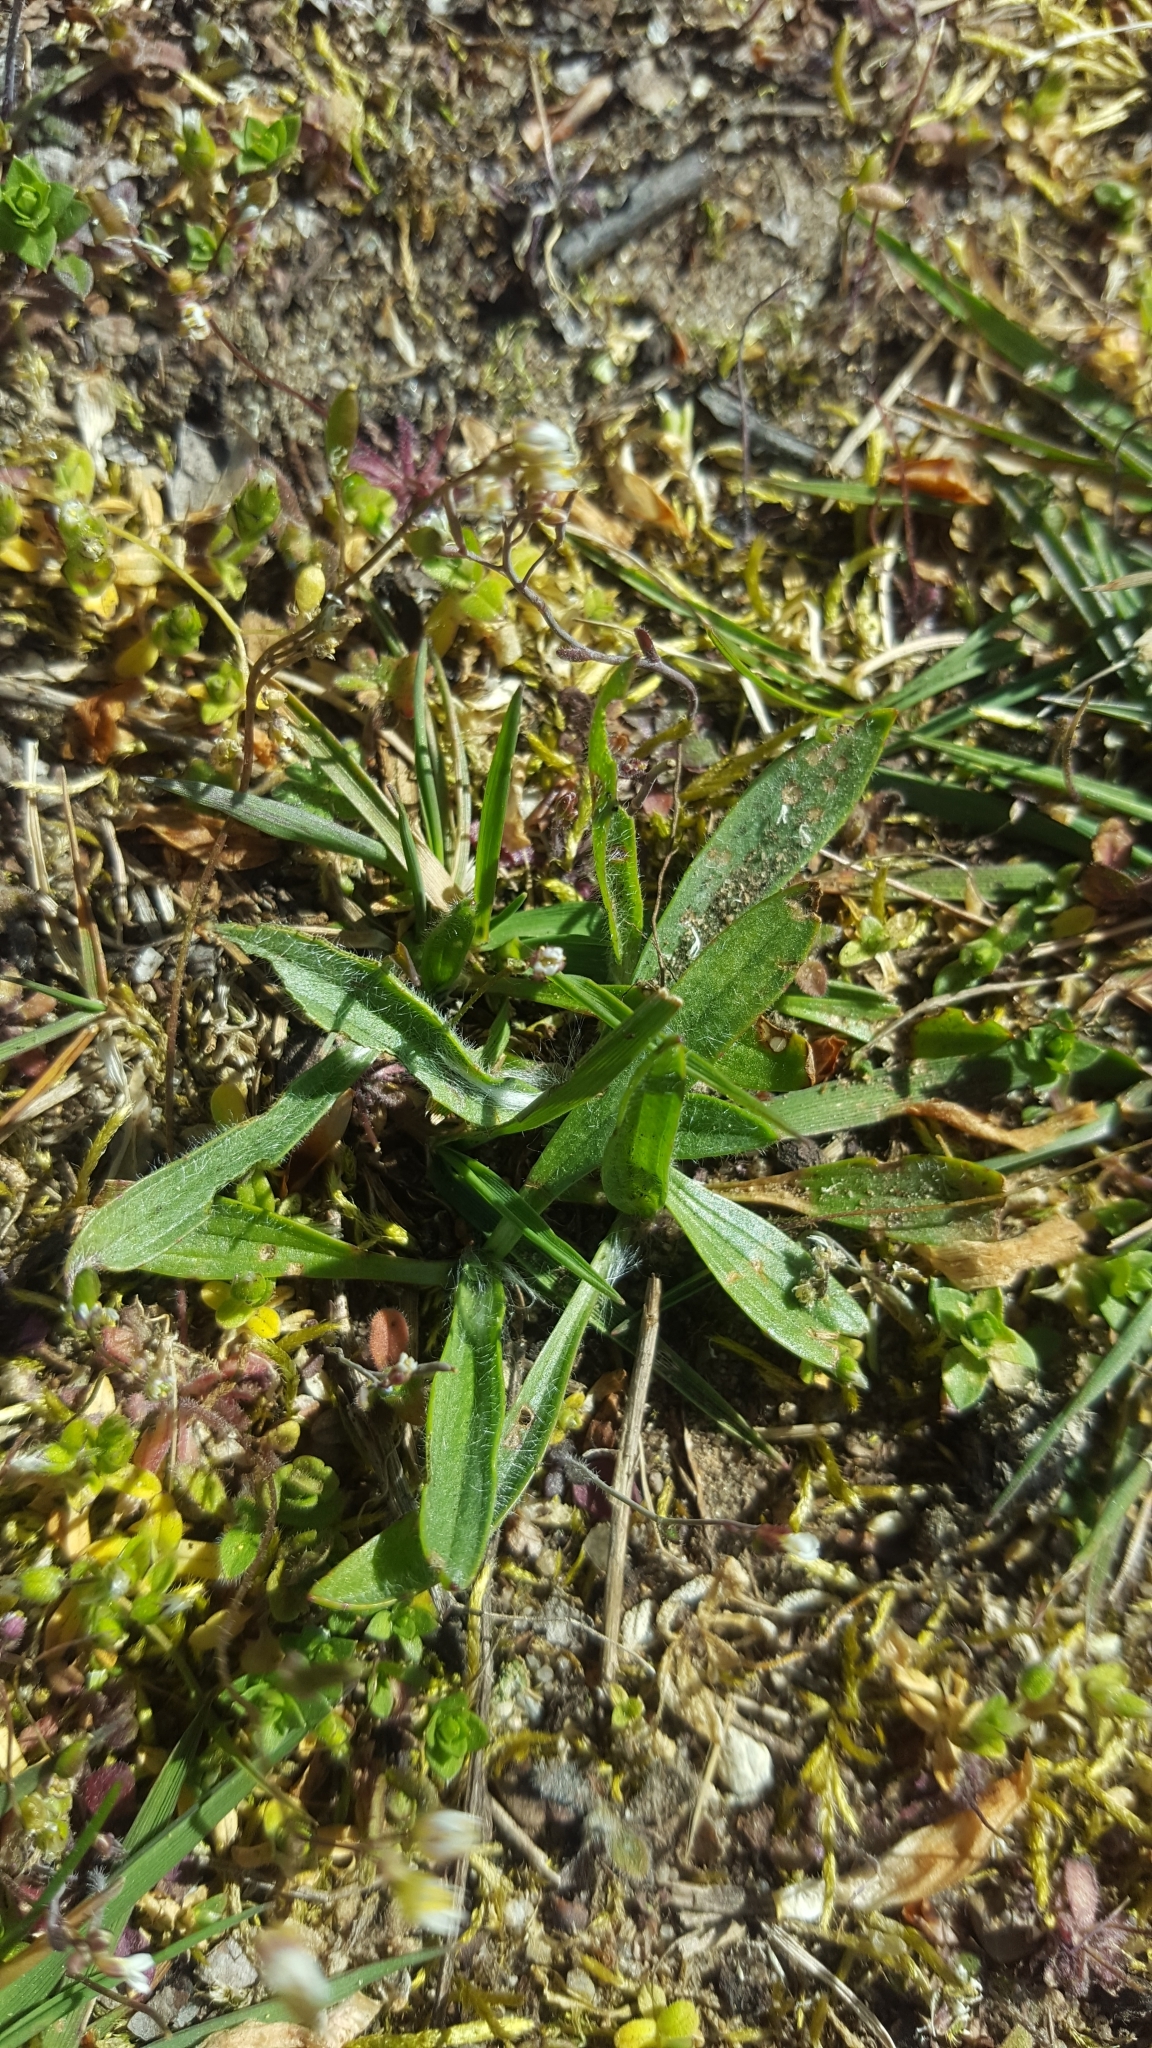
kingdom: Plantae
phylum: Tracheophyta
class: Magnoliopsida
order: Lamiales
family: Plantaginaceae
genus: Plantago
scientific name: Plantago lanceolata
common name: Ribwort plantain
